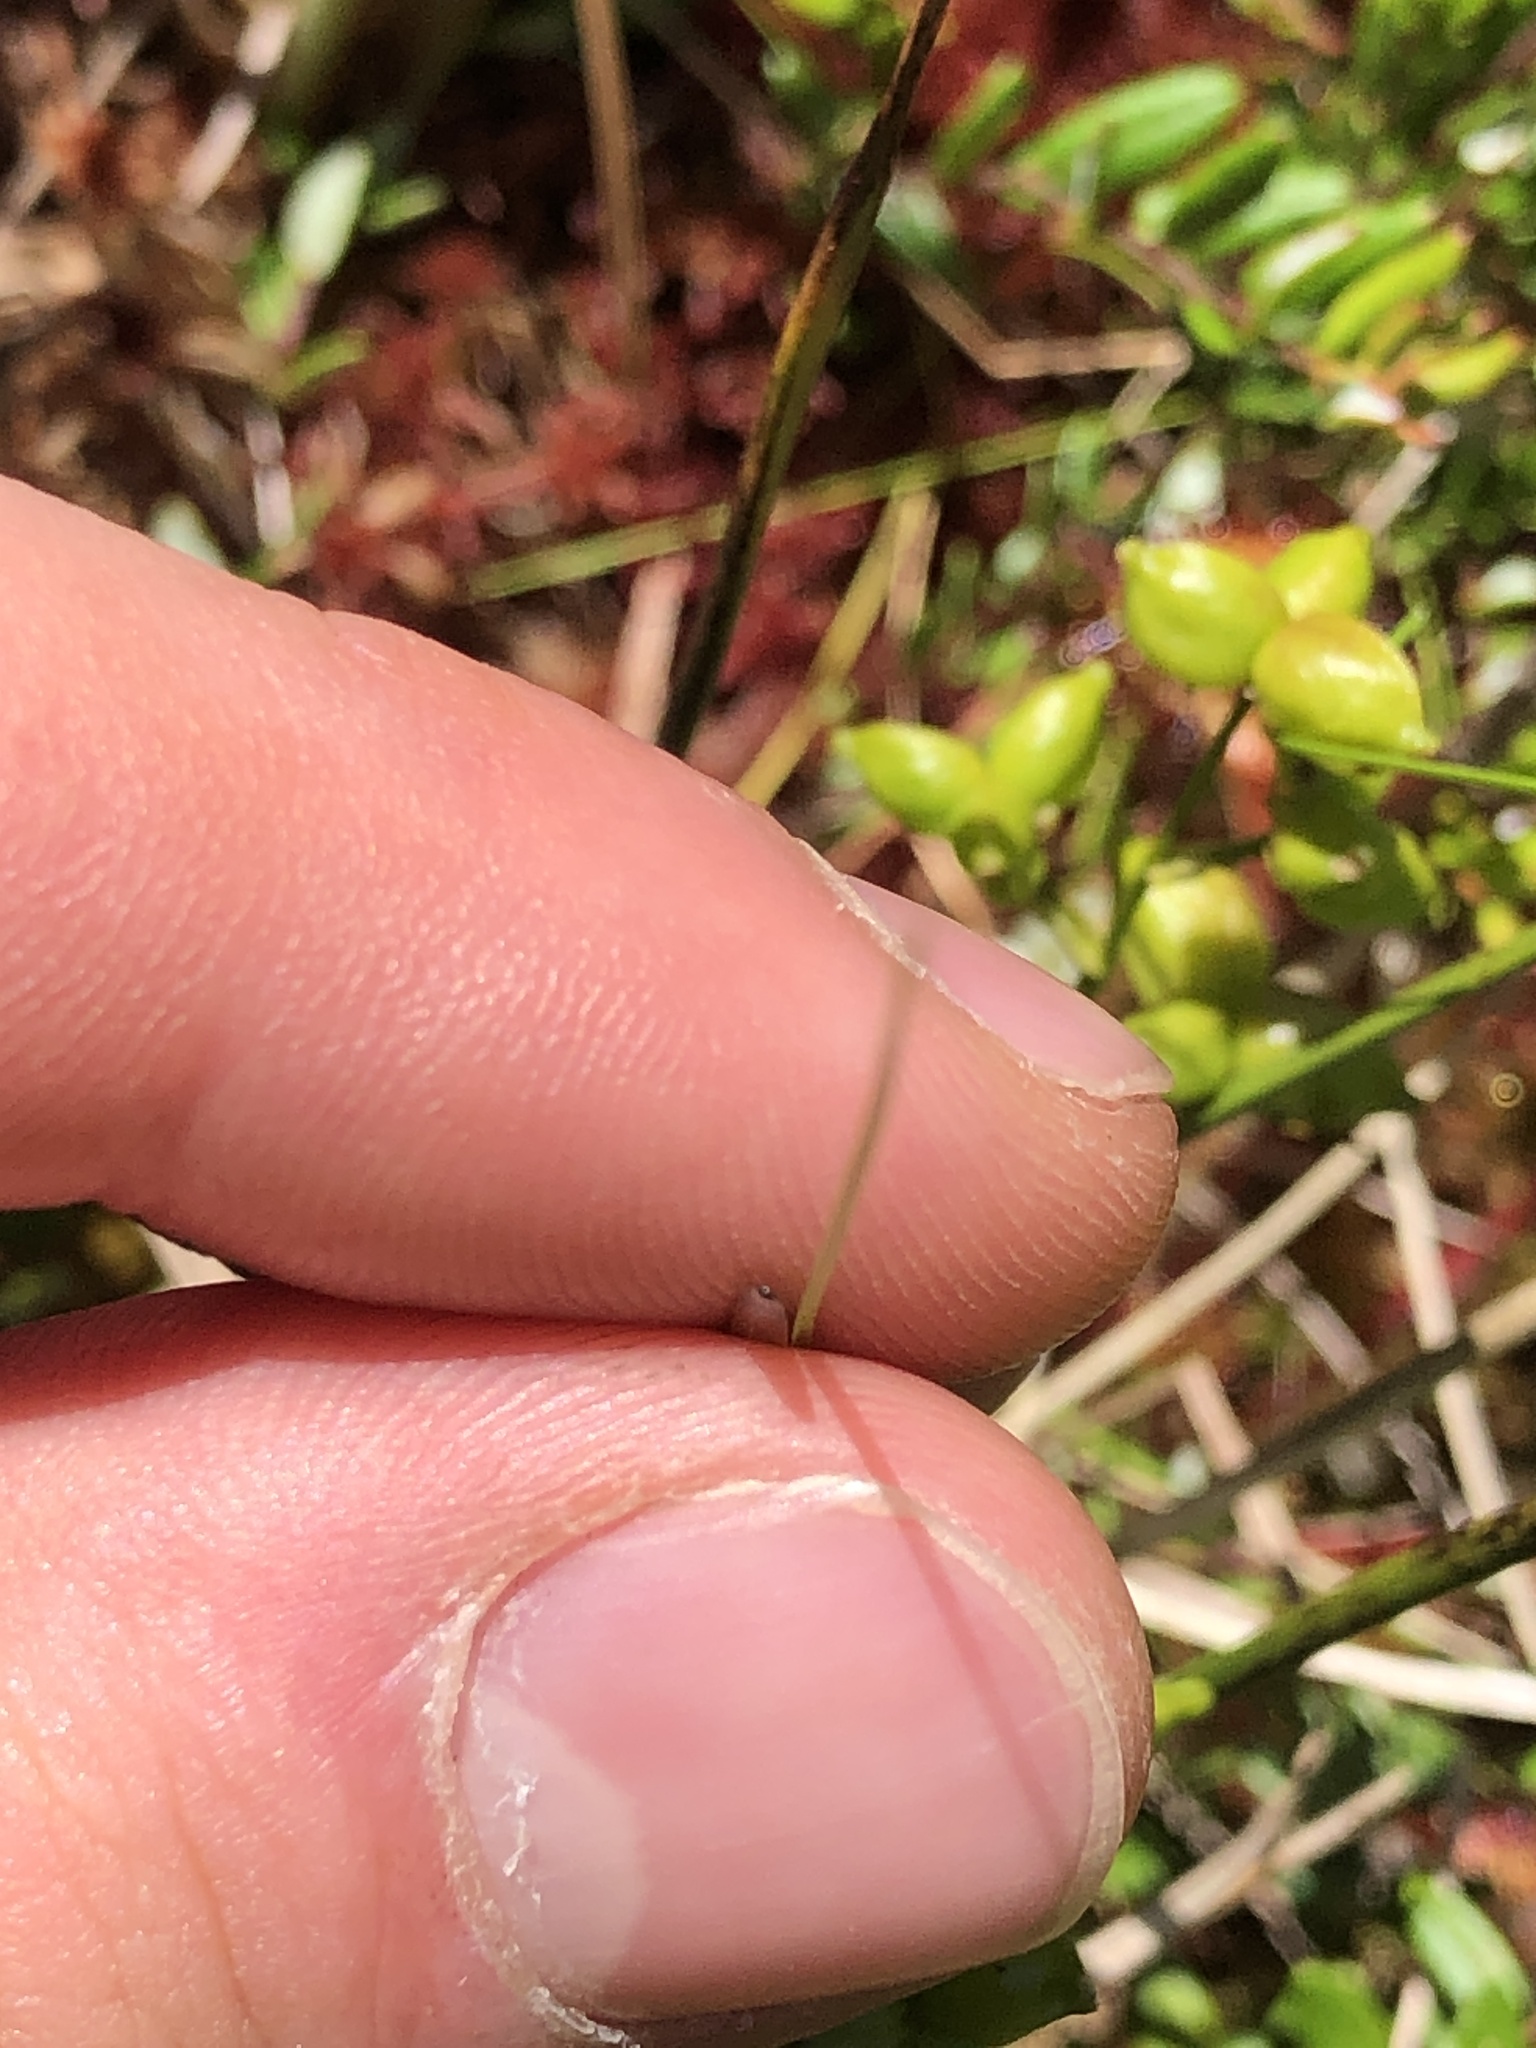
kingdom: Plantae
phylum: Tracheophyta
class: Liliopsida
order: Alismatales
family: Scheuchzeriaceae
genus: Scheuchzeria
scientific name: Scheuchzeria palustris
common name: Rannoch-rush
